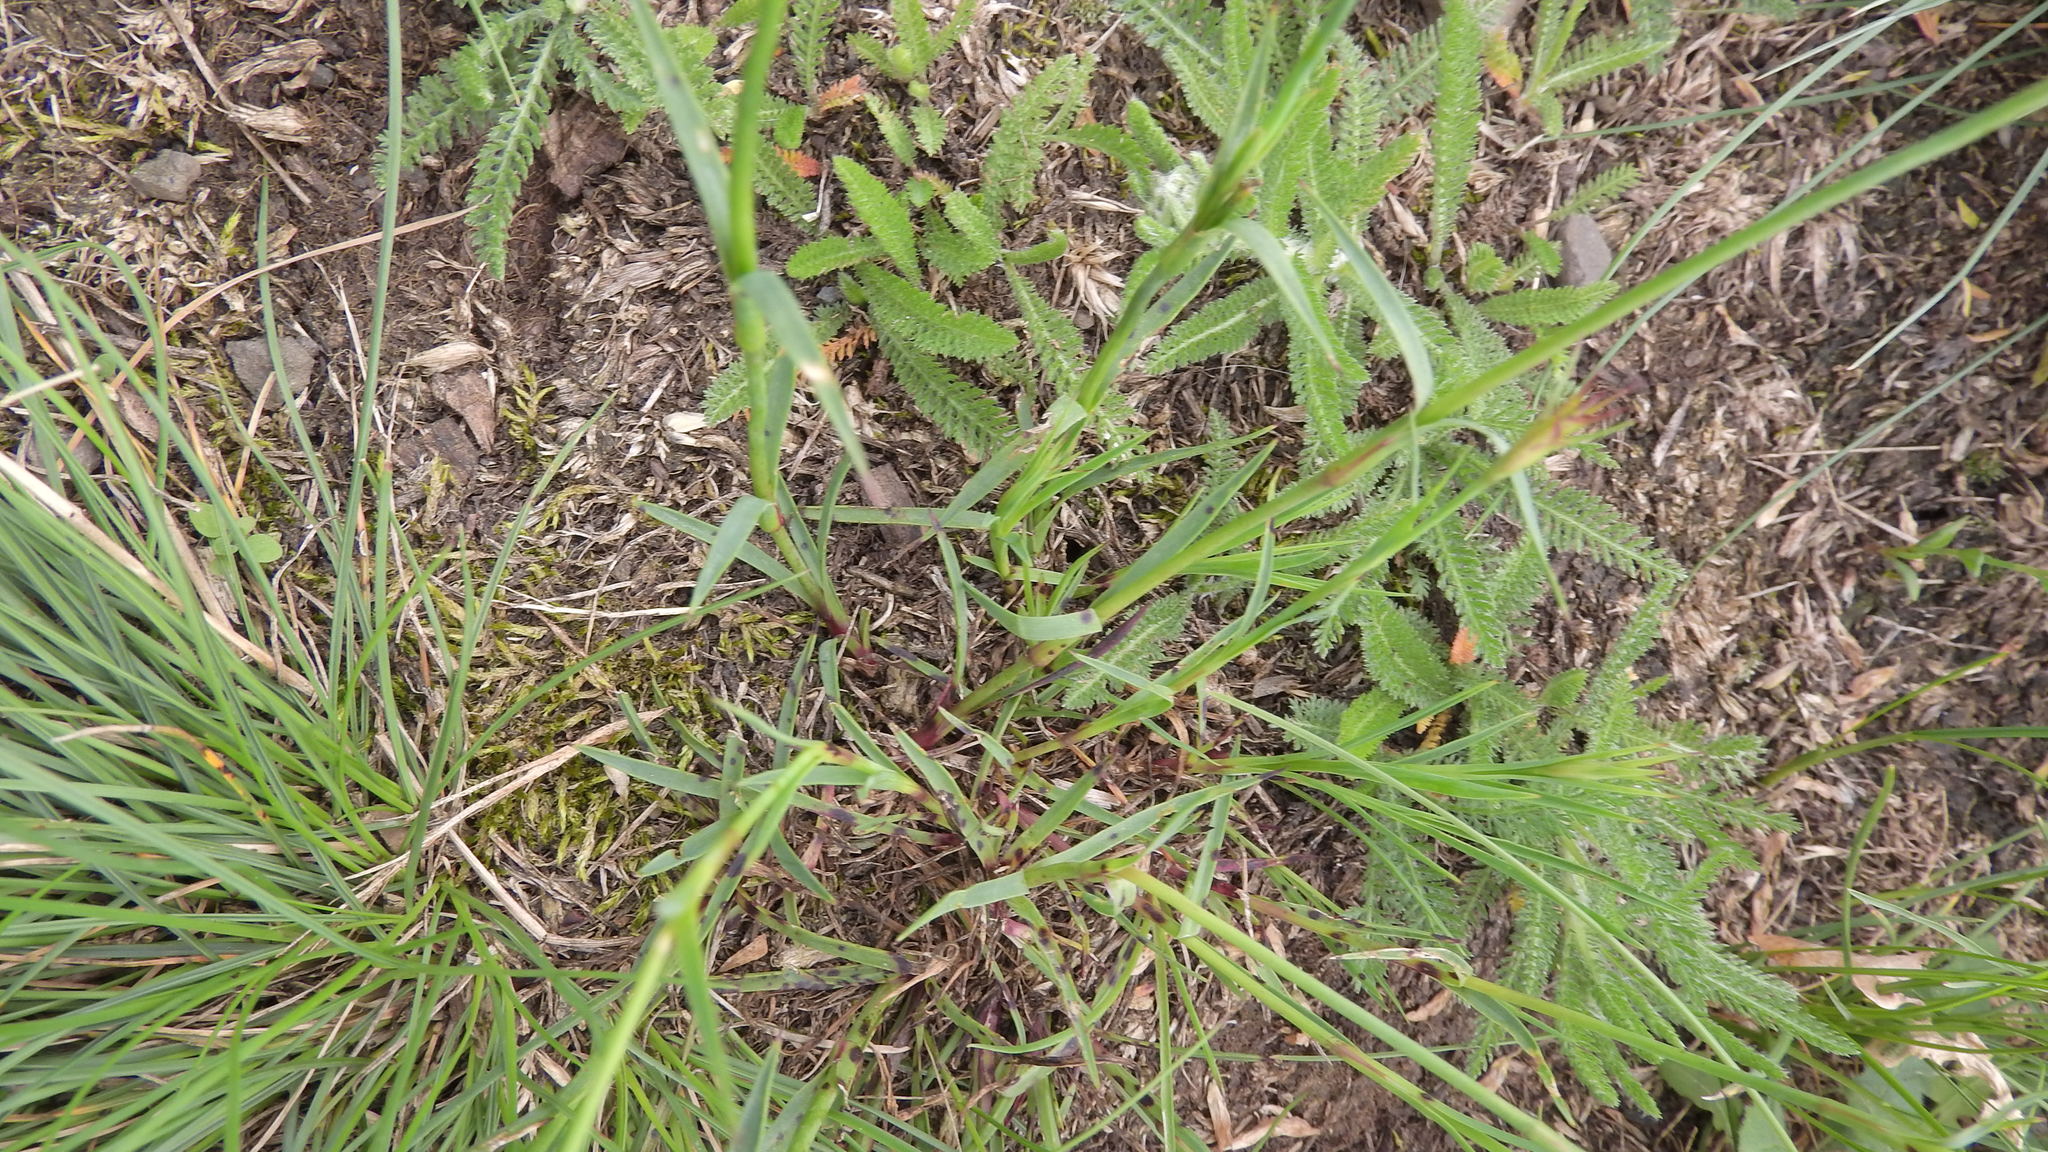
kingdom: Plantae
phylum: Tracheophyta
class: Magnoliopsida
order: Caryophyllales
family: Caryophyllaceae
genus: Dianthus
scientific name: Dianthus carthusianorum
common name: Carthusian pink
